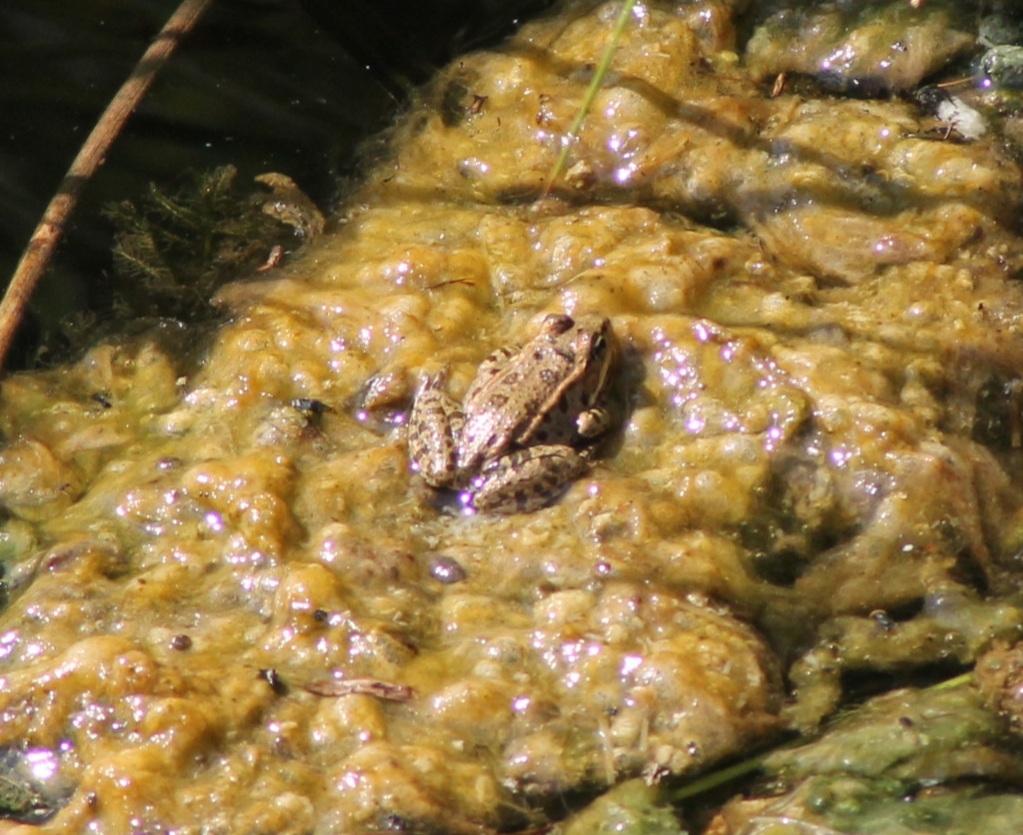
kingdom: Animalia
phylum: Chordata
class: Amphibia
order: Anura
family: Ranidae
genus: Pelophylax
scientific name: Pelophylax
